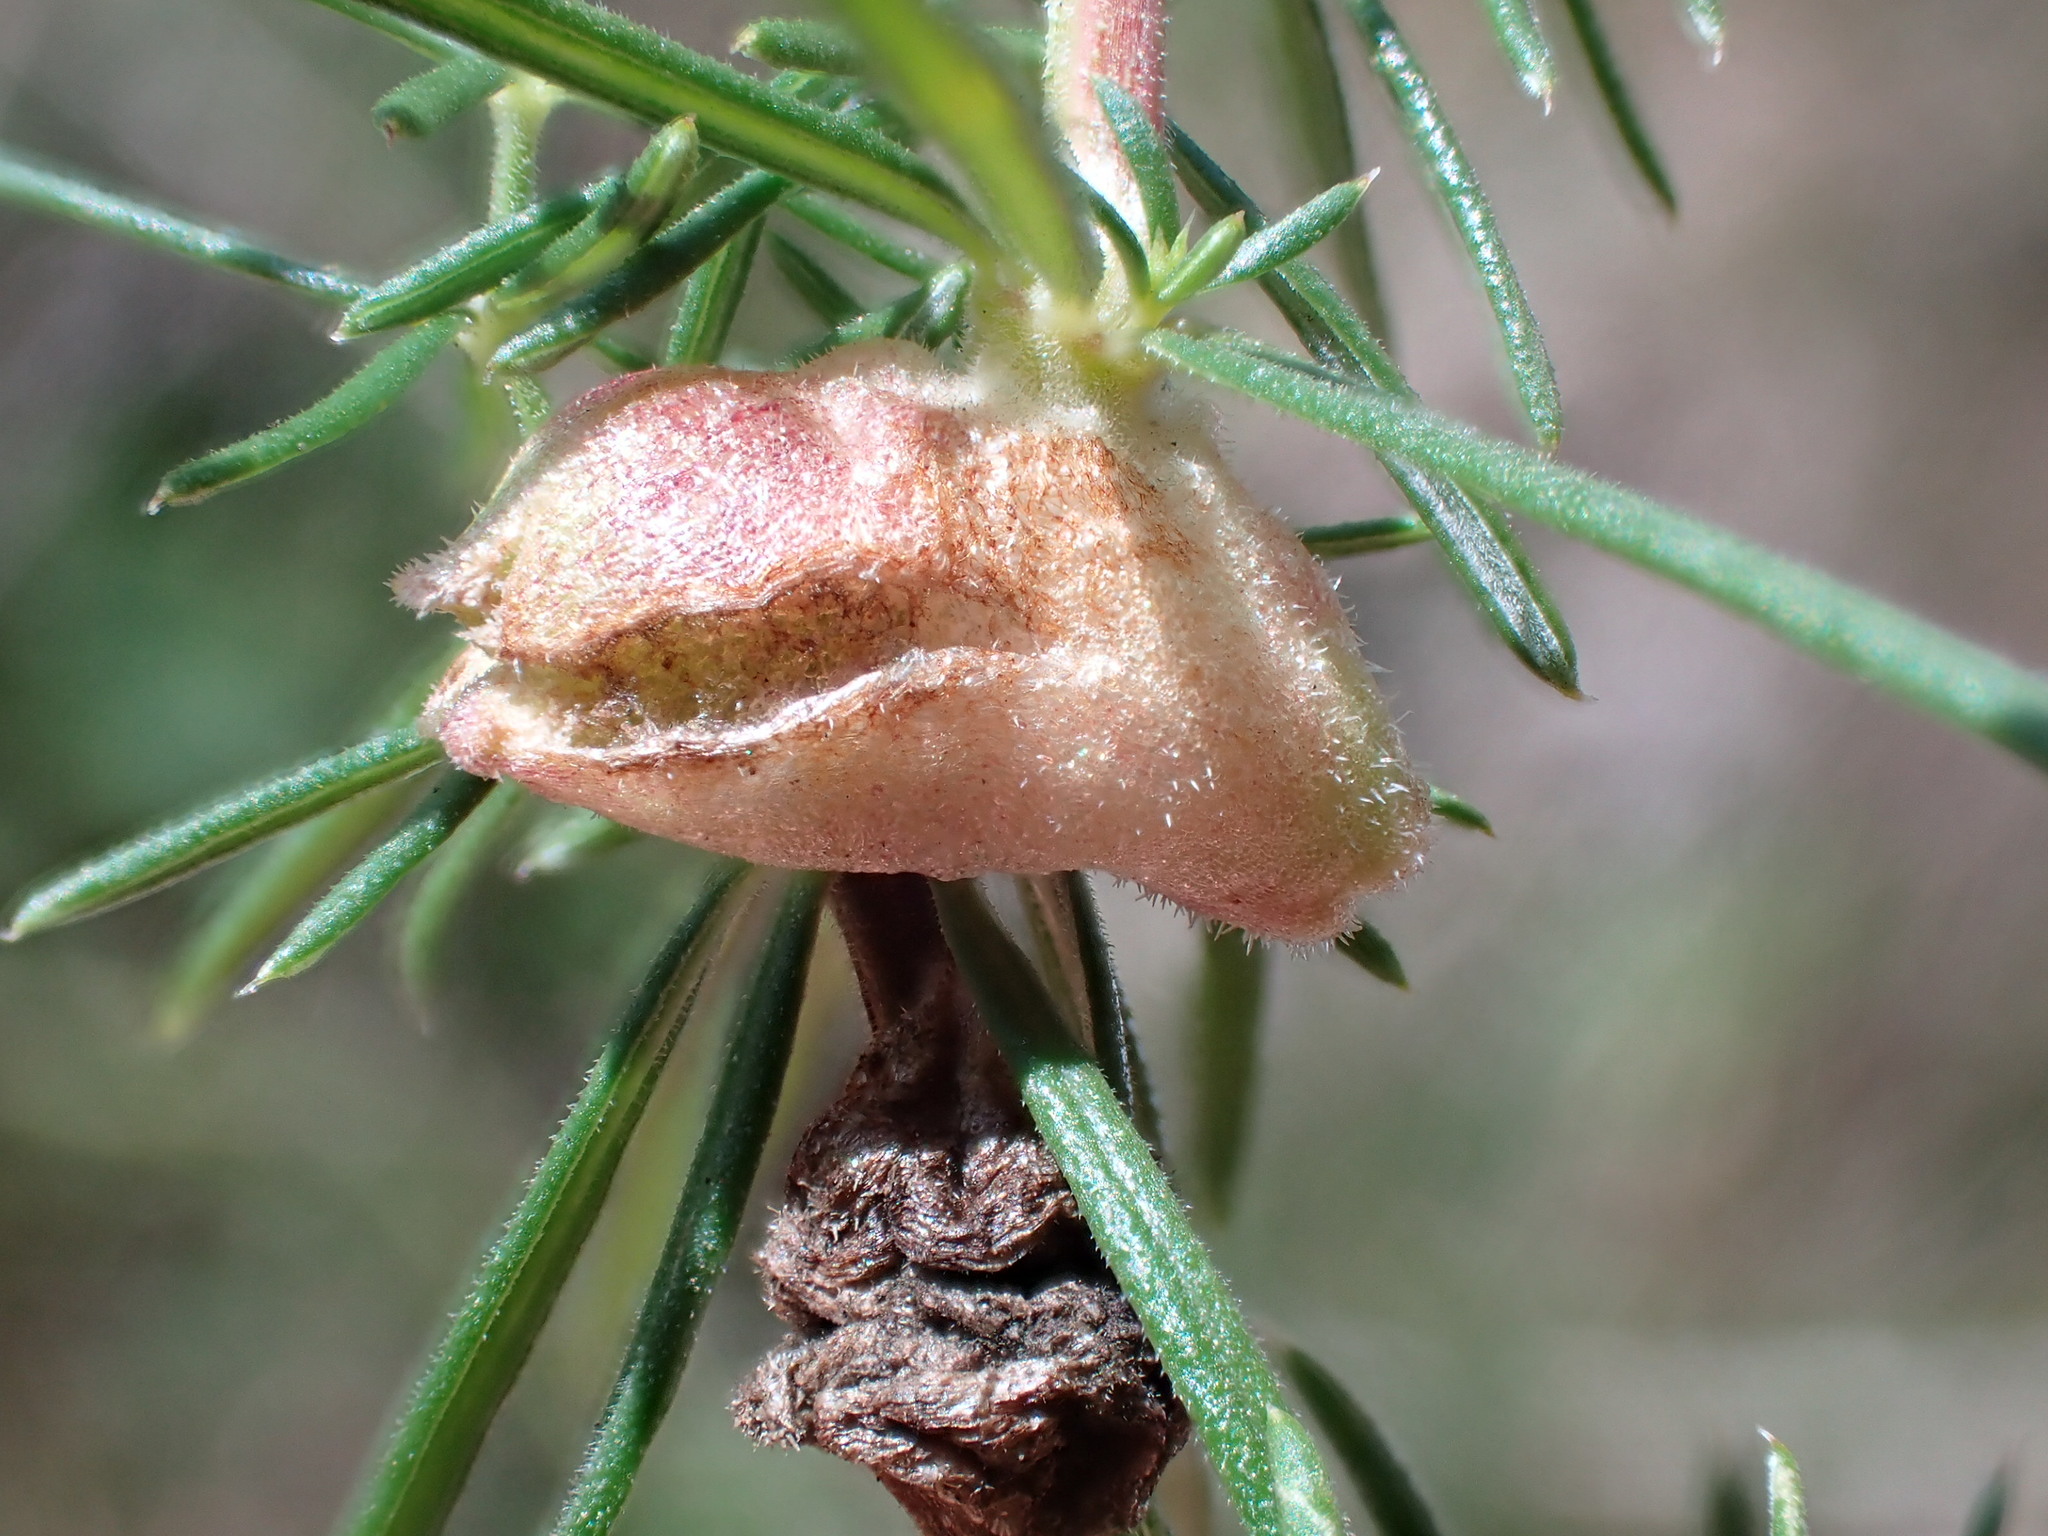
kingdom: Animalia
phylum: Arthropoda
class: Insecta
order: Diptera
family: Cecidomyiidae
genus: Geocrypta
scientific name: Geocrypta galii
